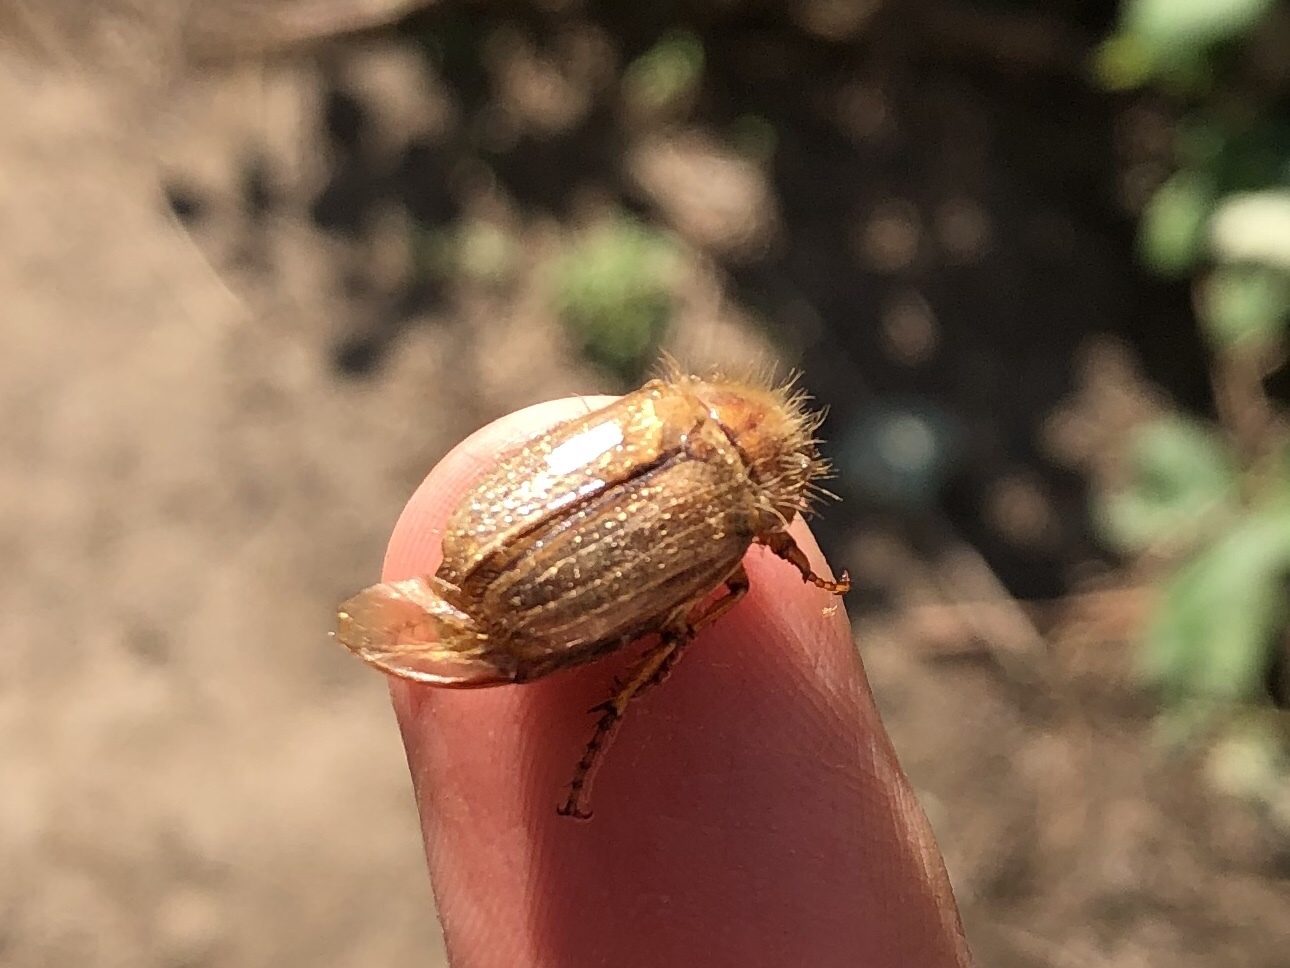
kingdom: Animalia
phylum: Arthropoda
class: Insecta
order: Coleoptera
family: Scarabaeidae
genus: Amphimallon
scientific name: Amphimallon solstitiale
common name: Summer chafer
